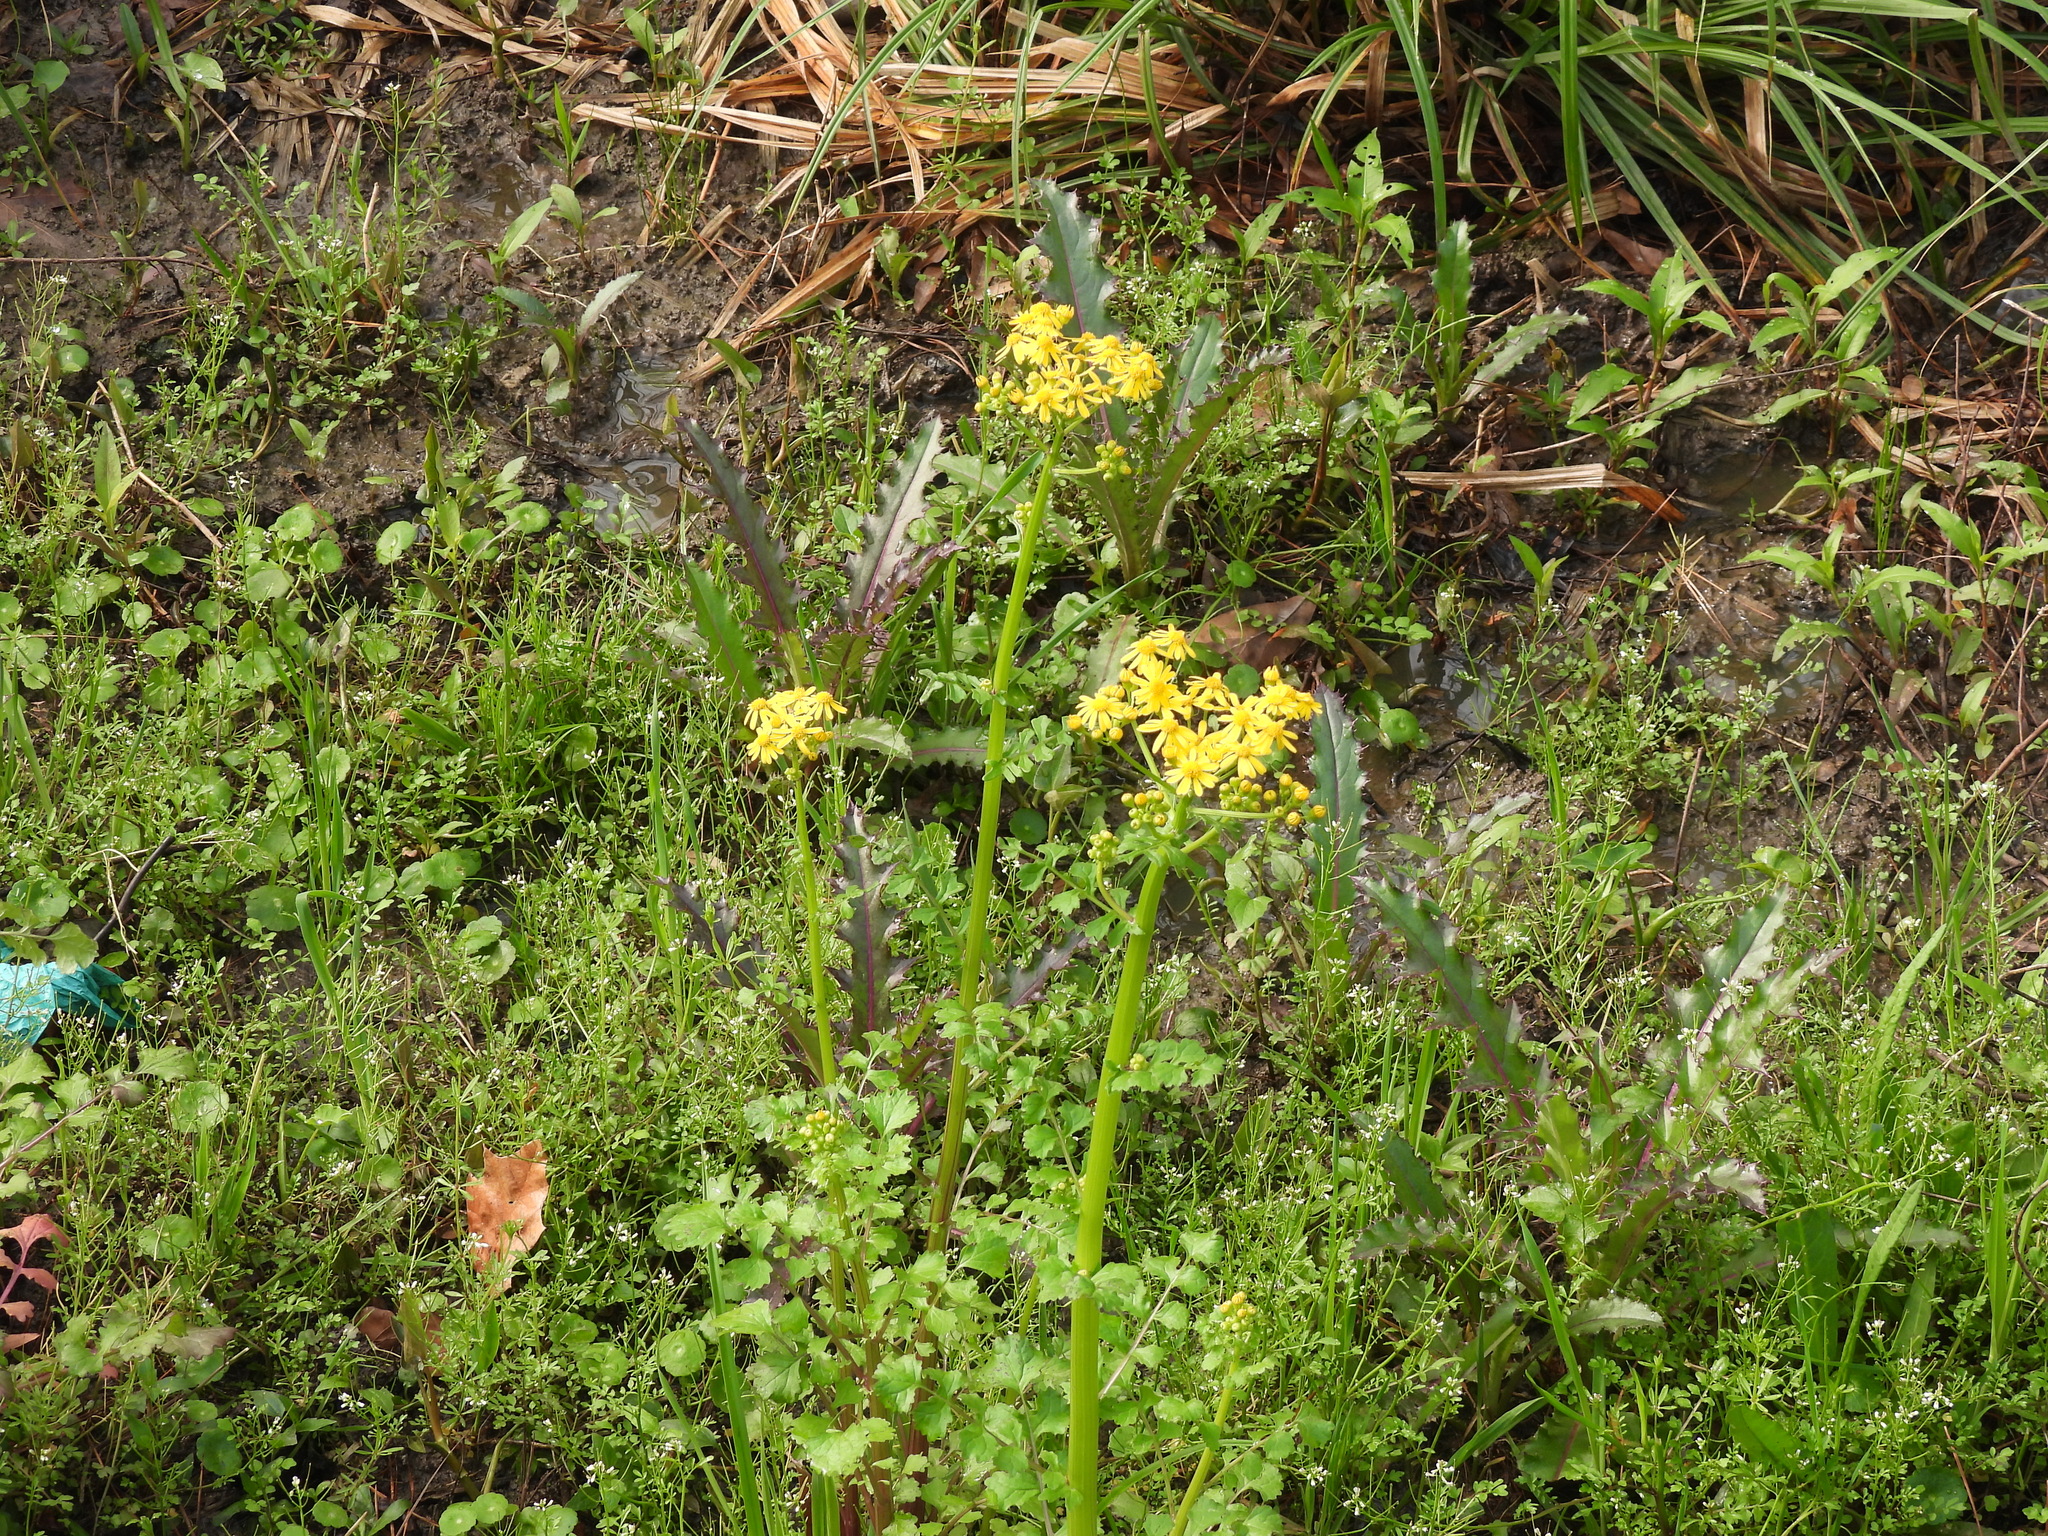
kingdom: Plantae
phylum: Tracheophyta
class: Magnoliopsida
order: Asterales
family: Asteraceae
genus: Packera
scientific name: Packera glabella
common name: Butterweed
